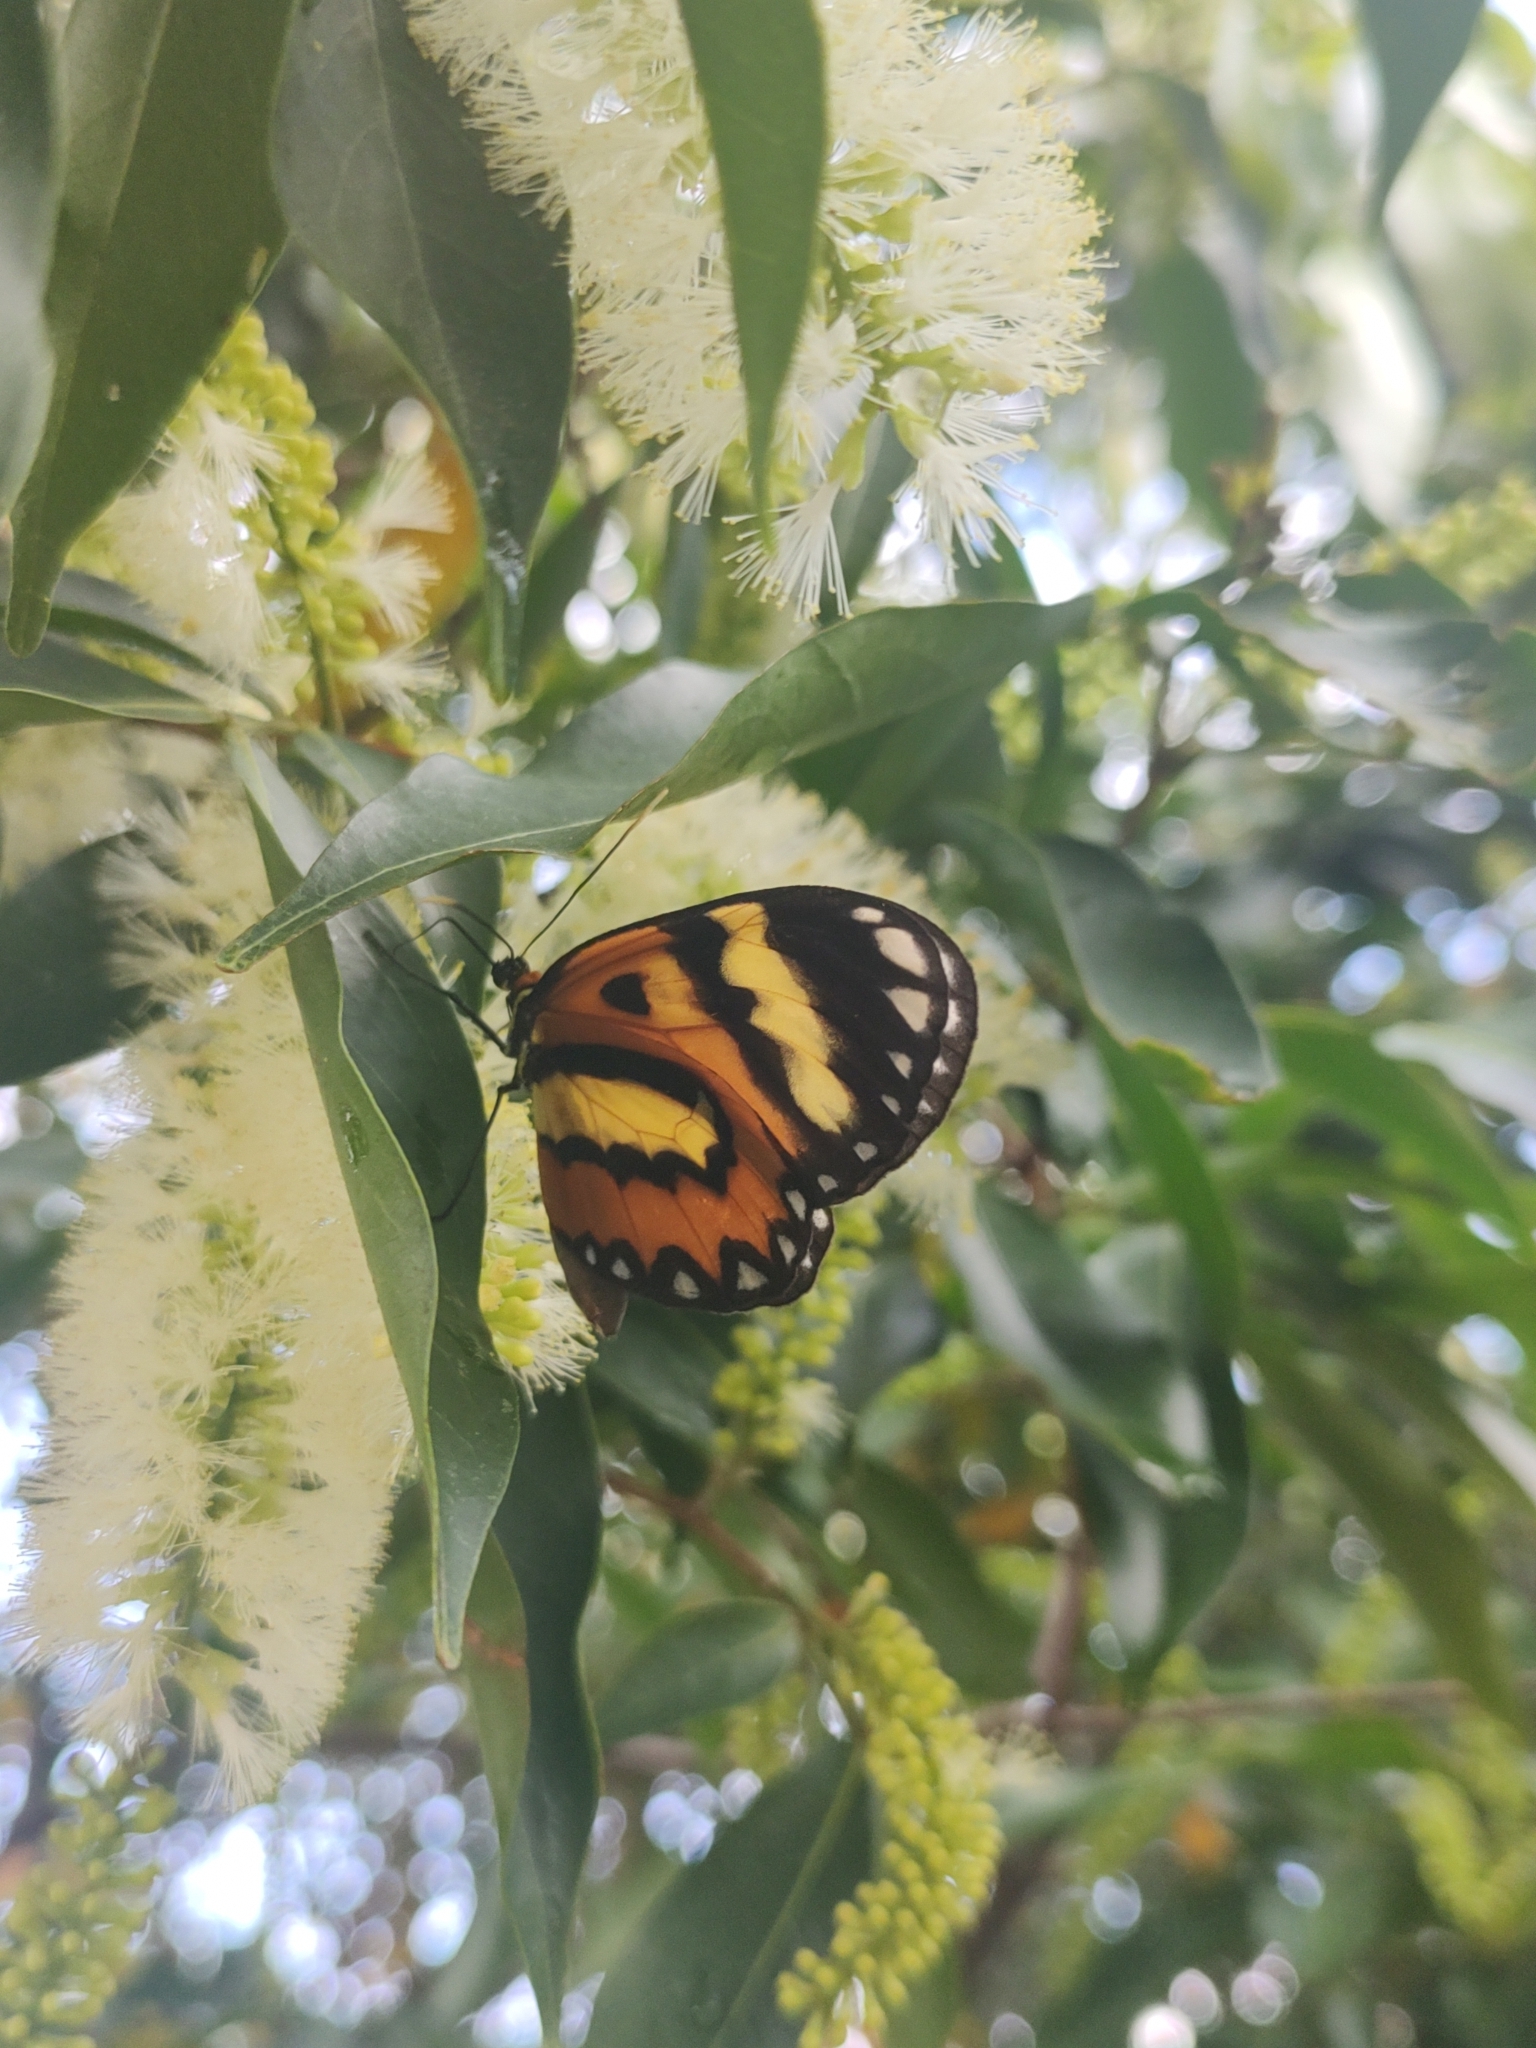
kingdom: Animalia
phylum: Arthropoda
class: Insecta
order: Lepidoptera
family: Nymphalidae
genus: Placidina
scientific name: Placidina euryanassa
